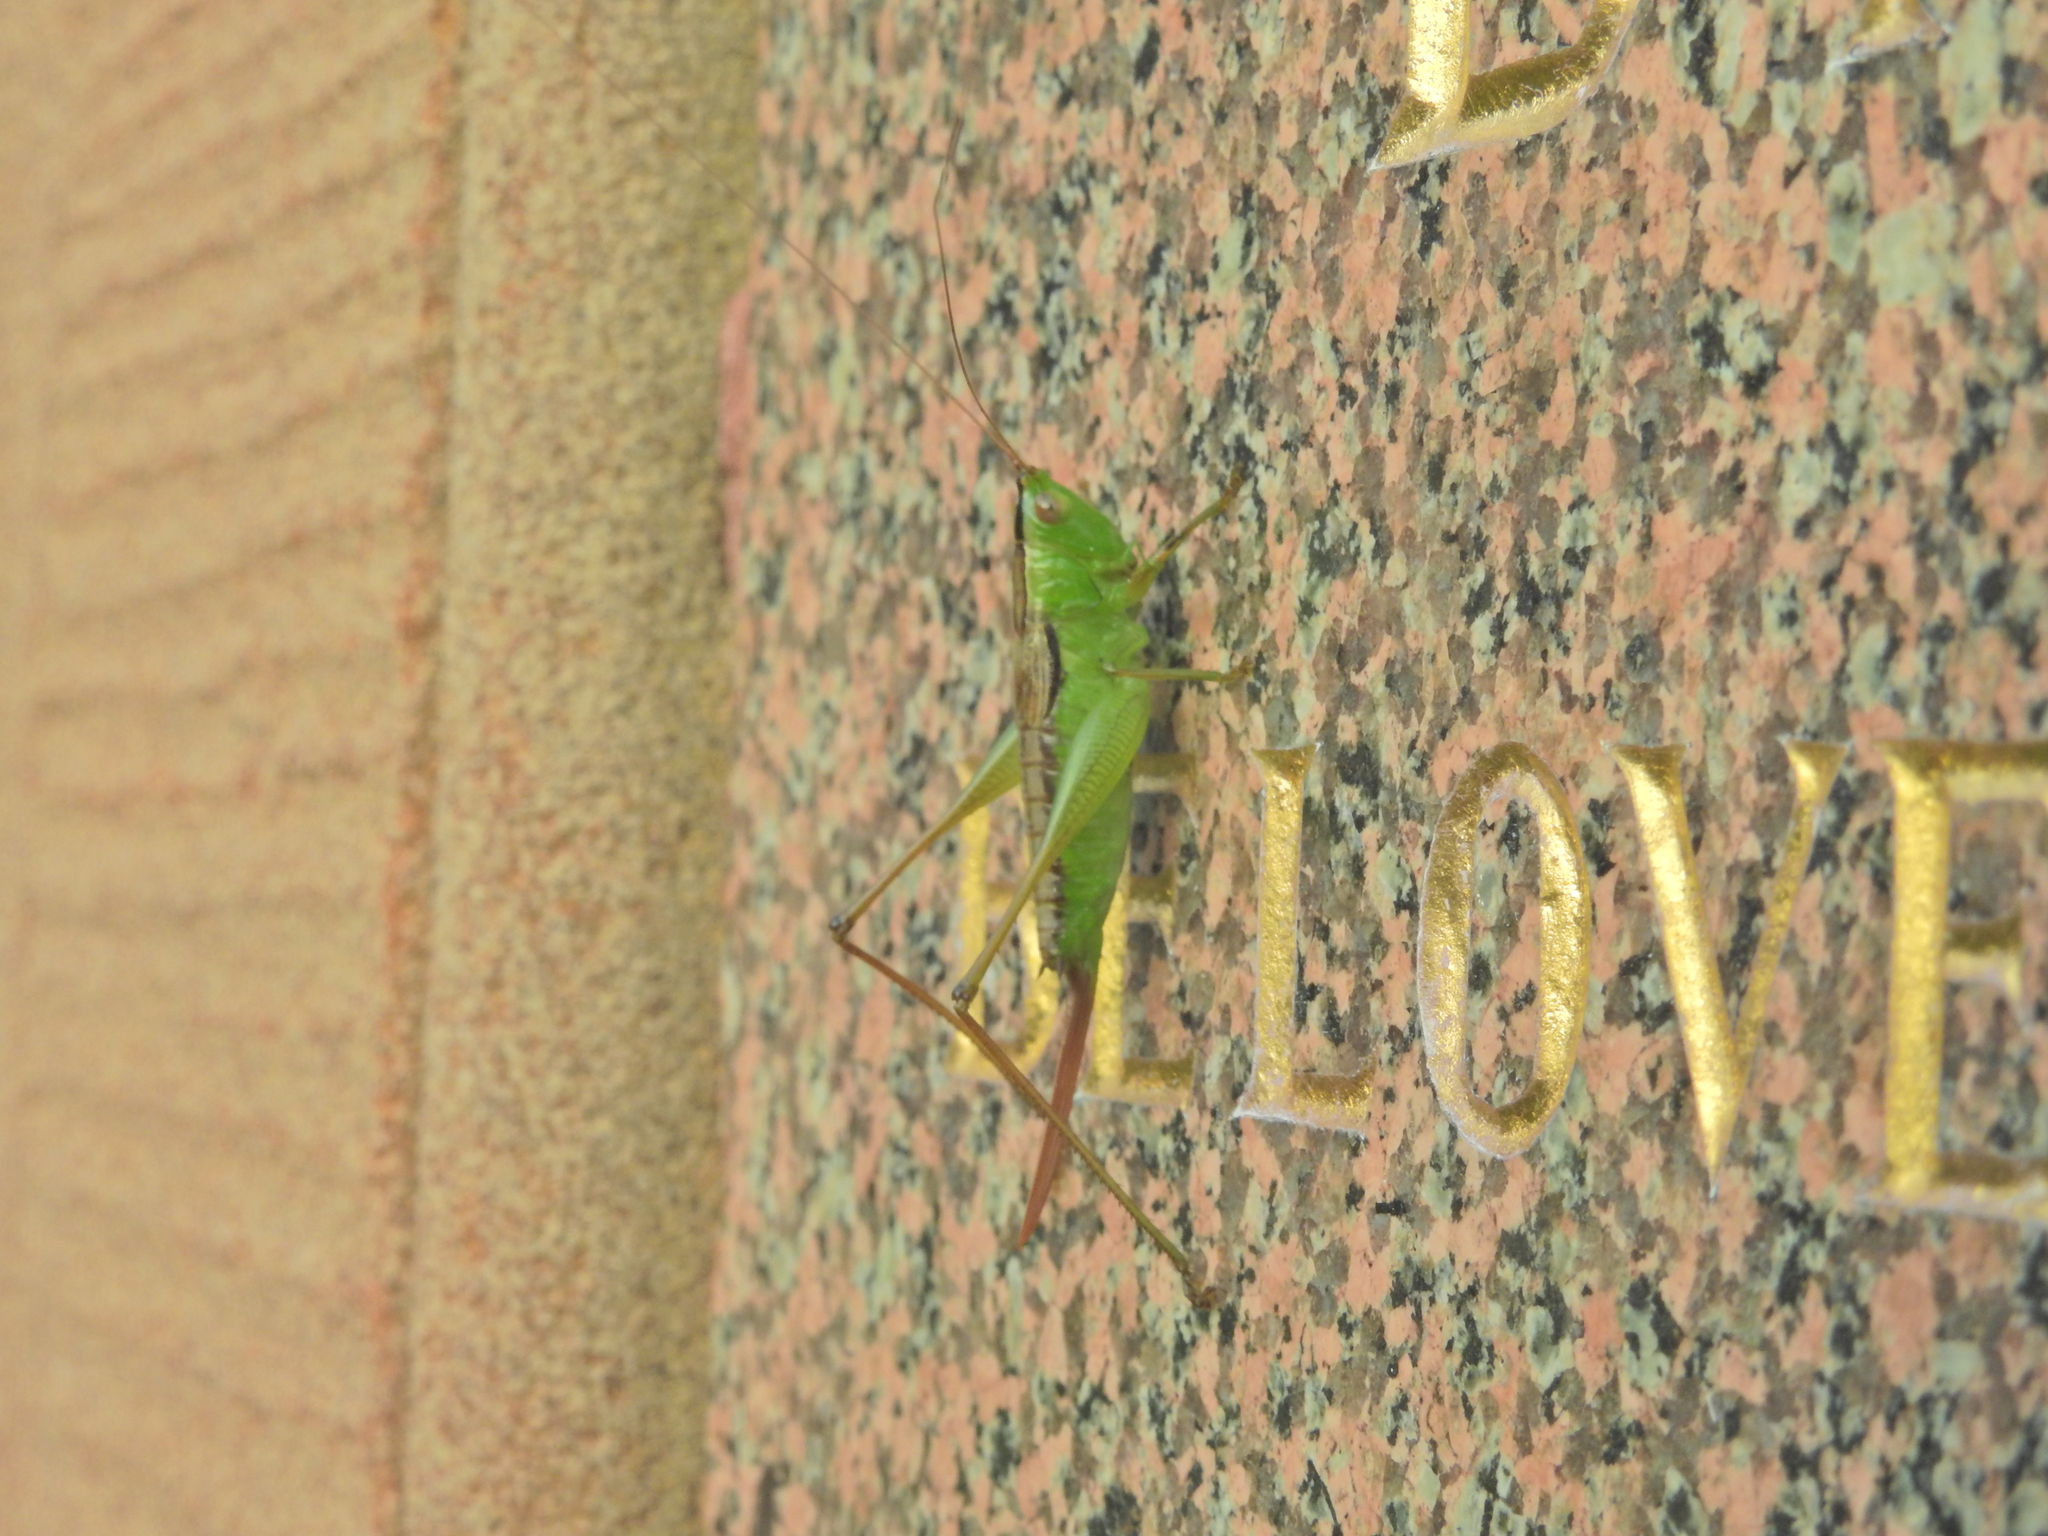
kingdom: Animalia
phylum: Arthropoda
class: Insecta
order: Orthoptera
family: Tettigoniidae
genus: Conocephalus
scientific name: Conocephalus semivittatus
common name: Blackish meadow katydid
